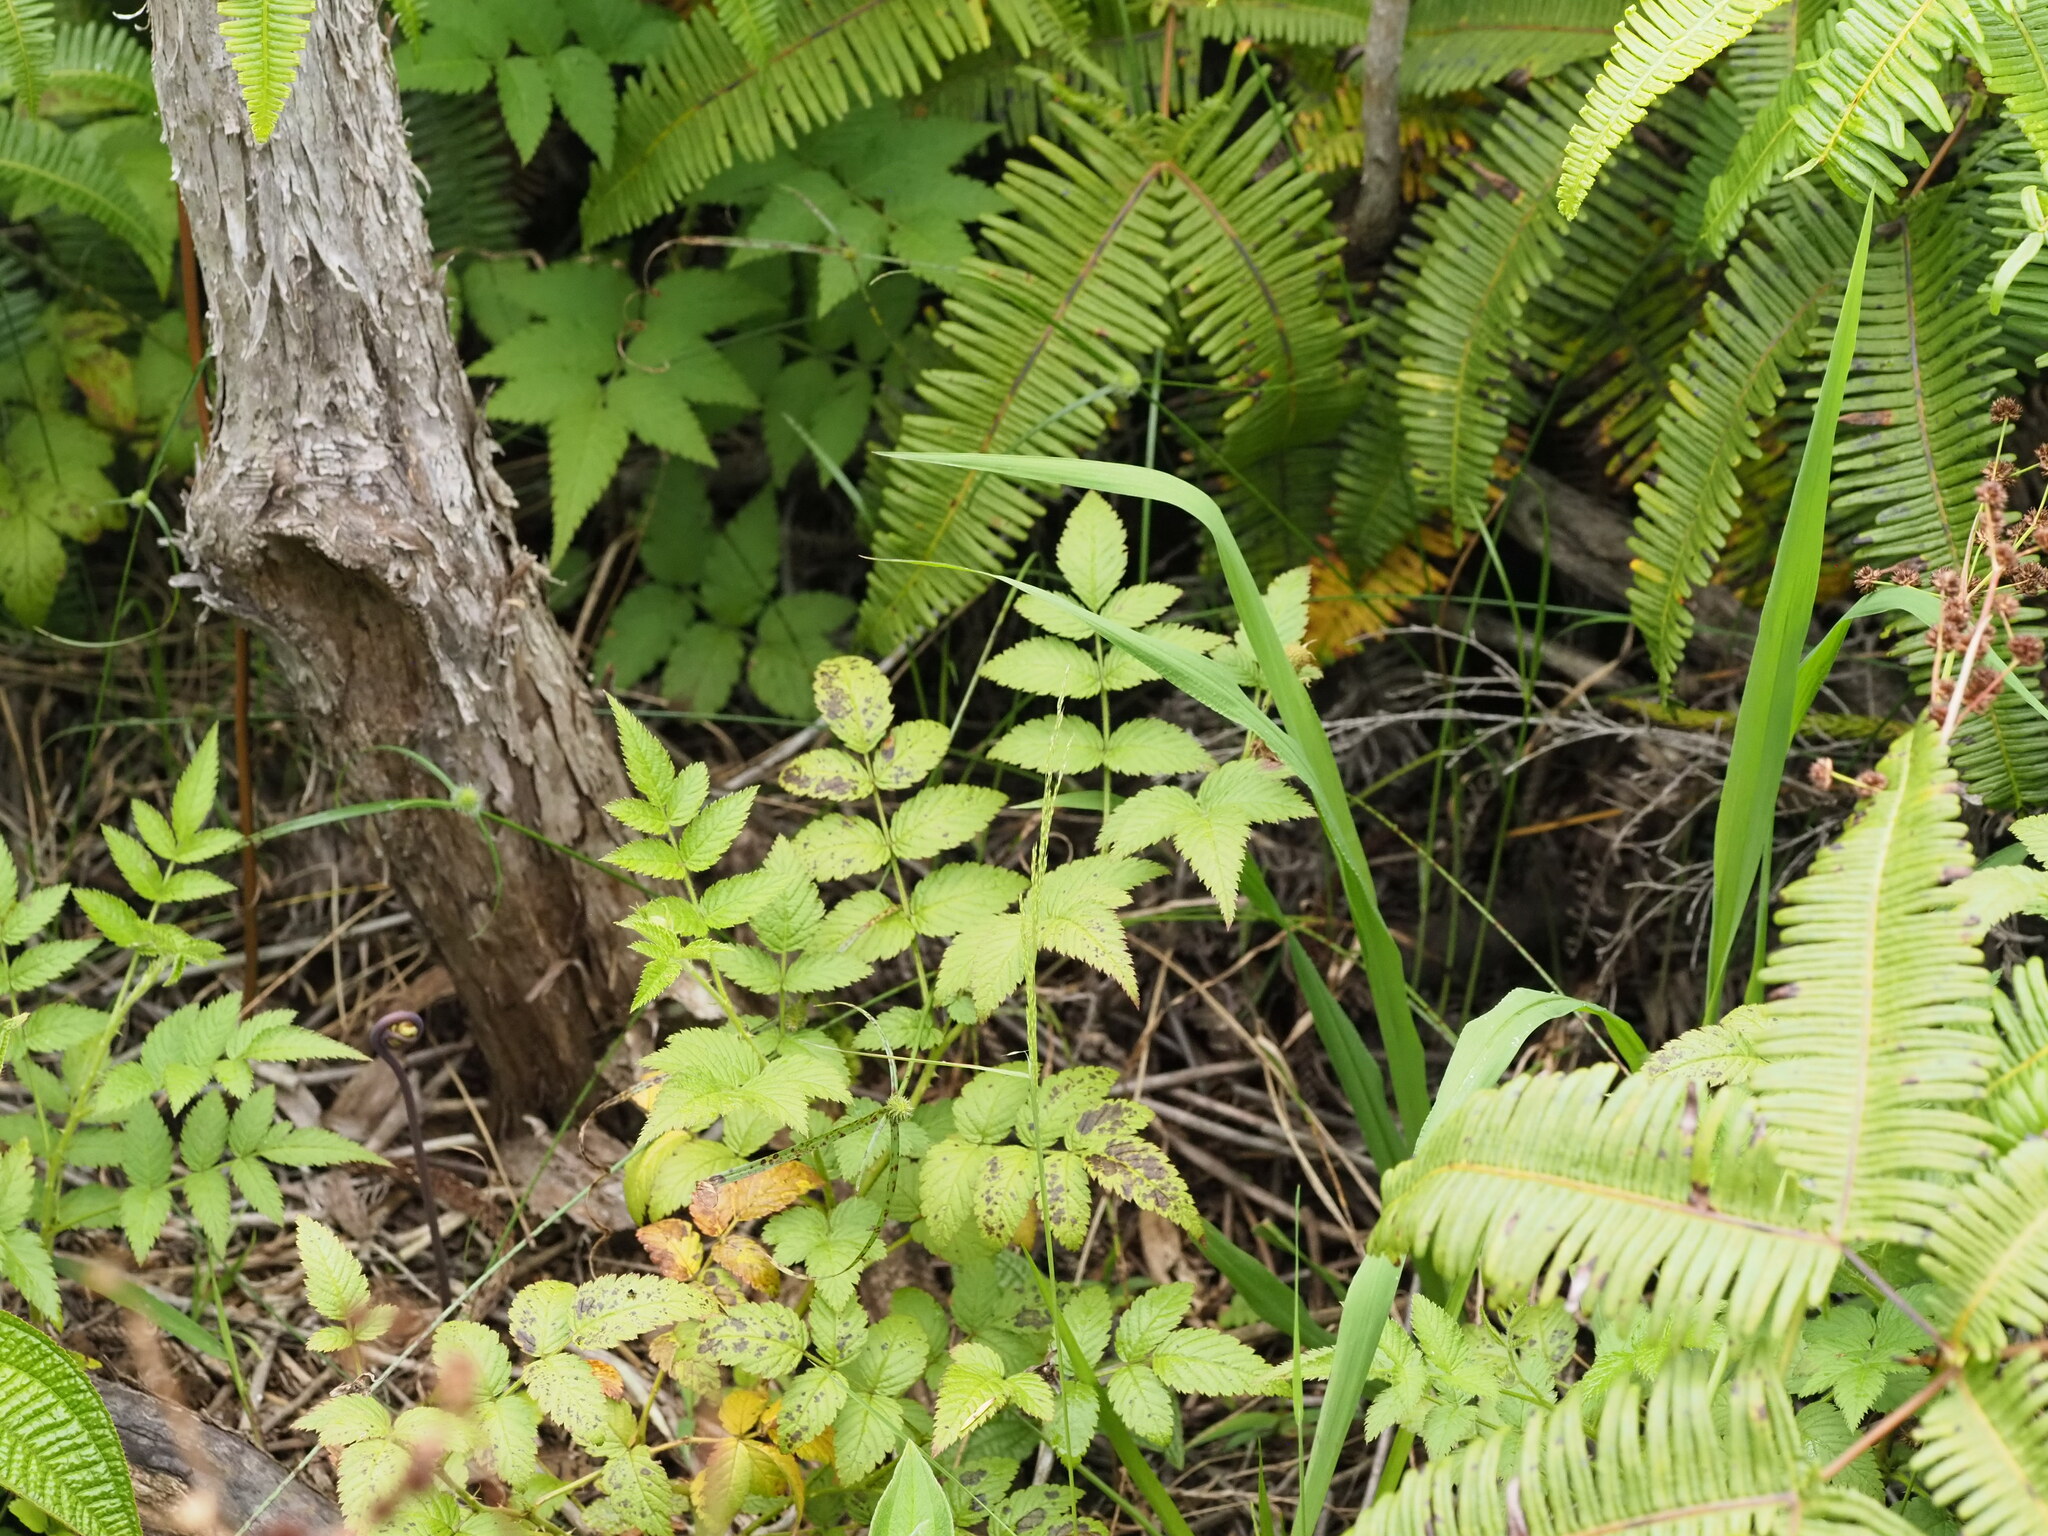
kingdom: Plantae
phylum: Tracheophyta
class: Magnoliopsida
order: Rosales
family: Rosaceae
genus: Rubus
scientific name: Rubus rosifolius
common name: Roseleaf raspberry
